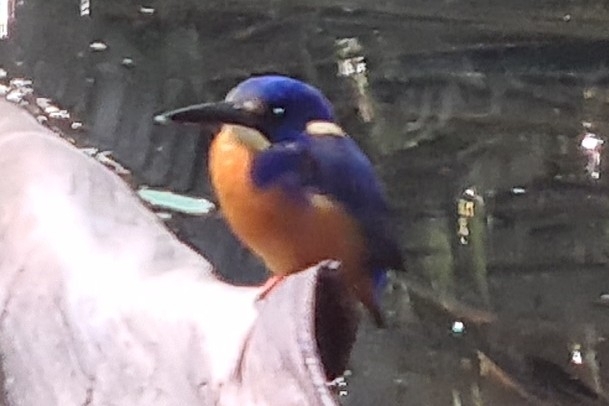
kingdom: Animalia
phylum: Chordata
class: Aves
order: Coraciiformes
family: Alcedinidae
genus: Ceyx
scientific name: Ceyx azureus
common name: Azure kingfisher
